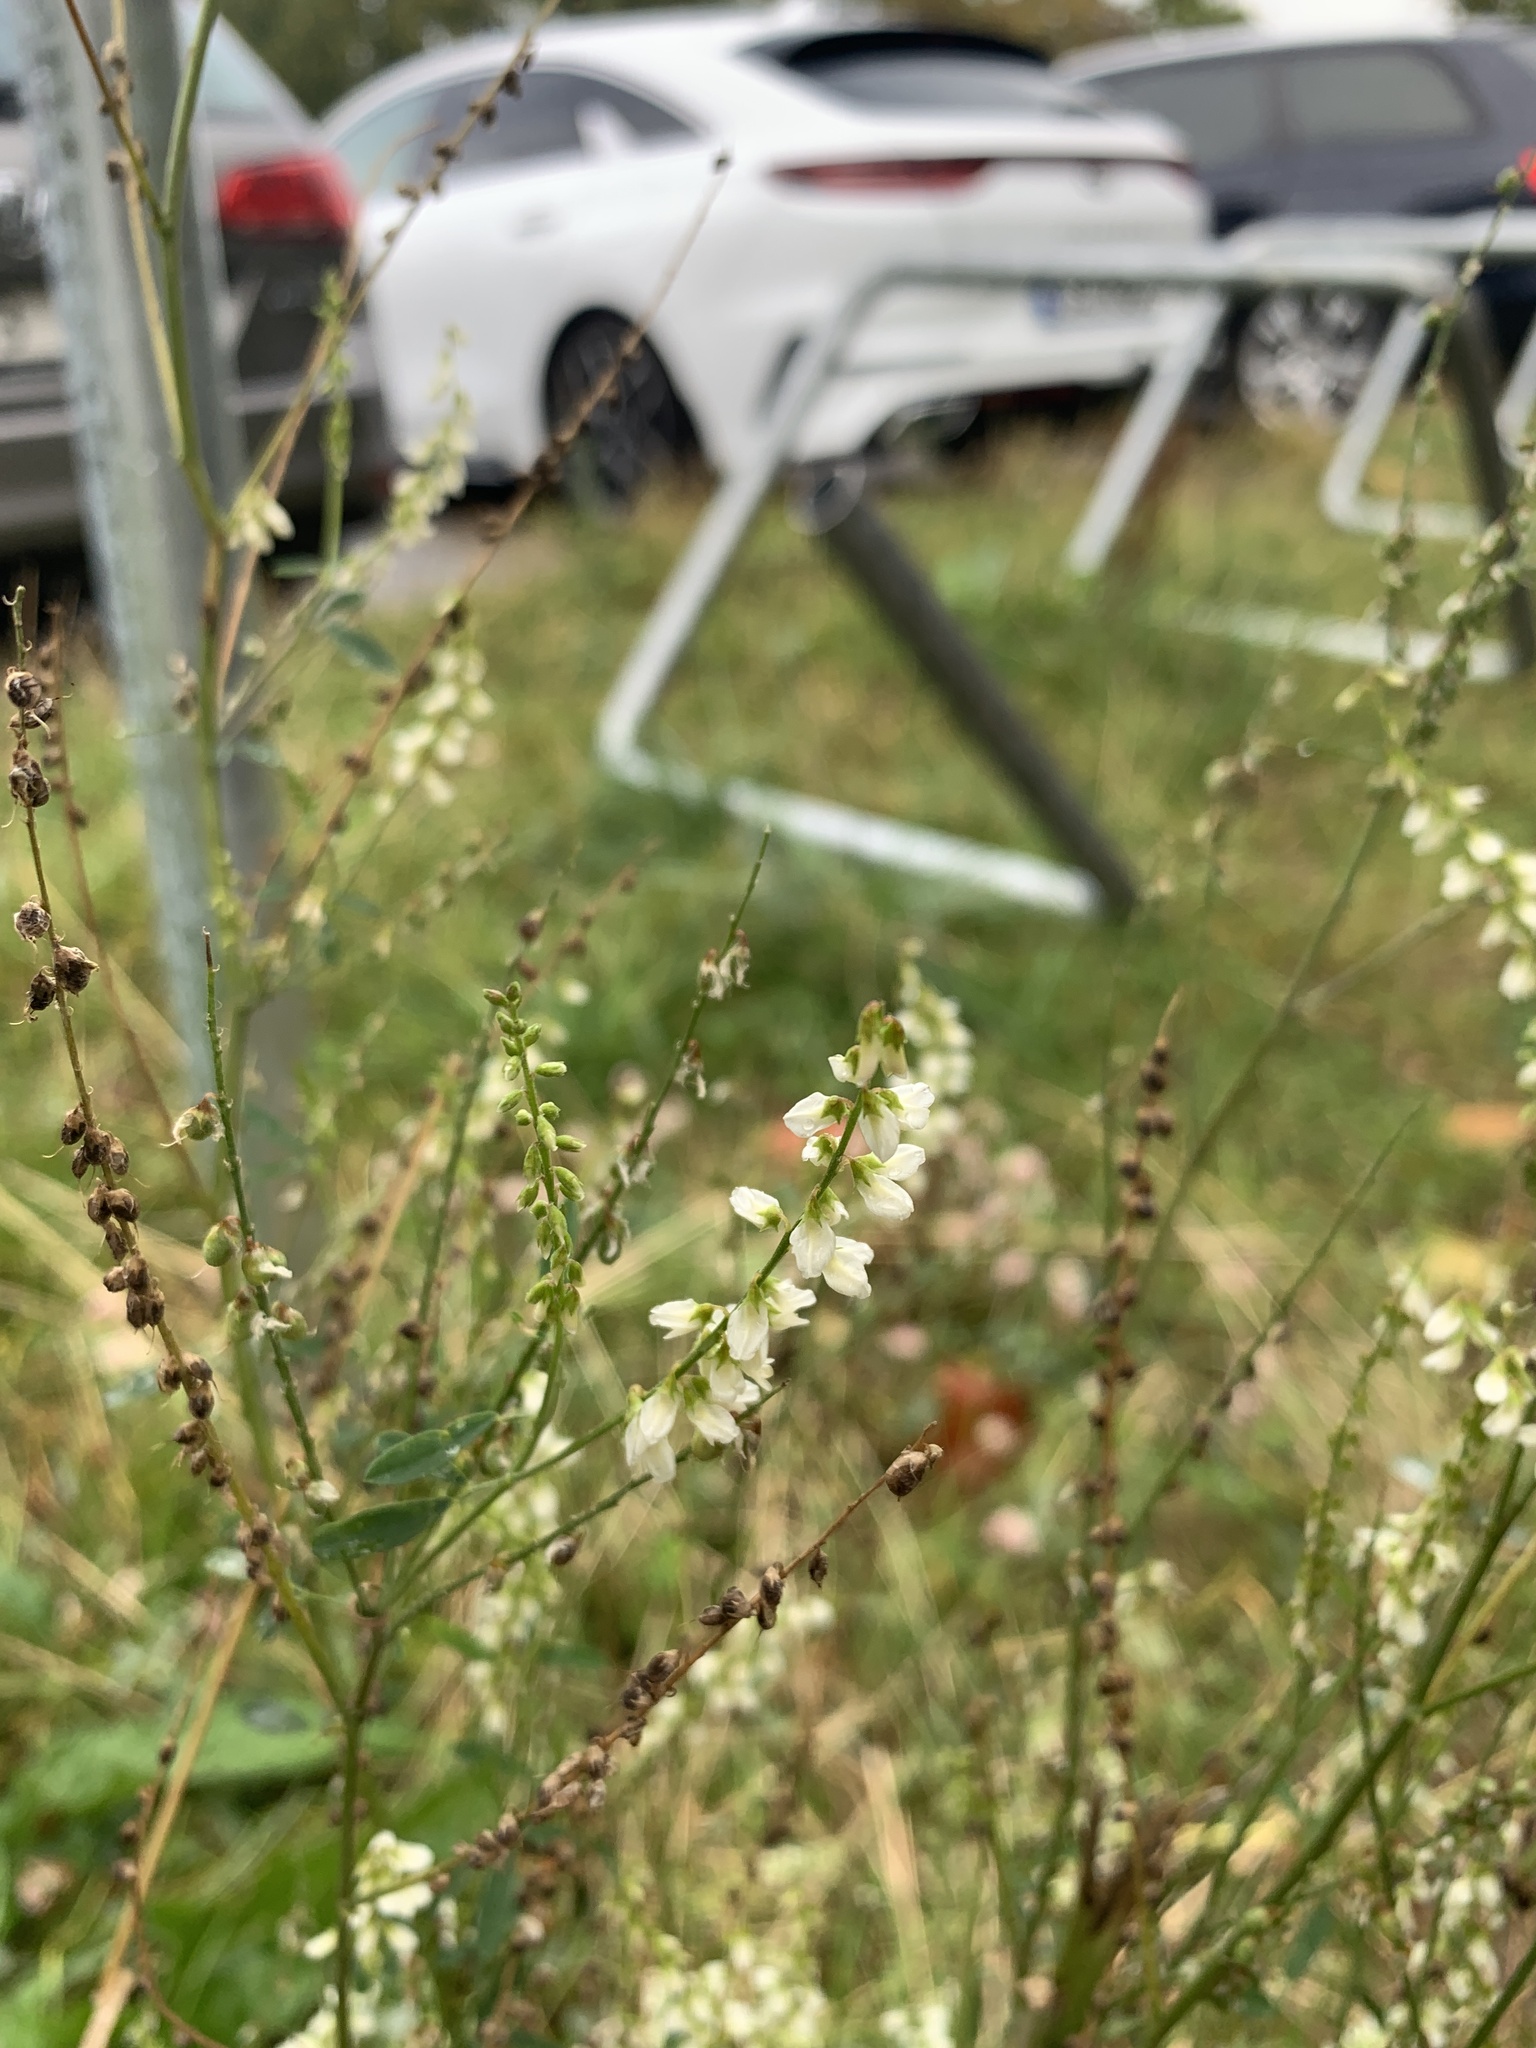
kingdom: Plantae
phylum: Tracheophyta
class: Magnoliopsida
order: Fabales
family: Fabaceae
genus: Melilotus
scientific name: Melilotus albus
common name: White melilot
